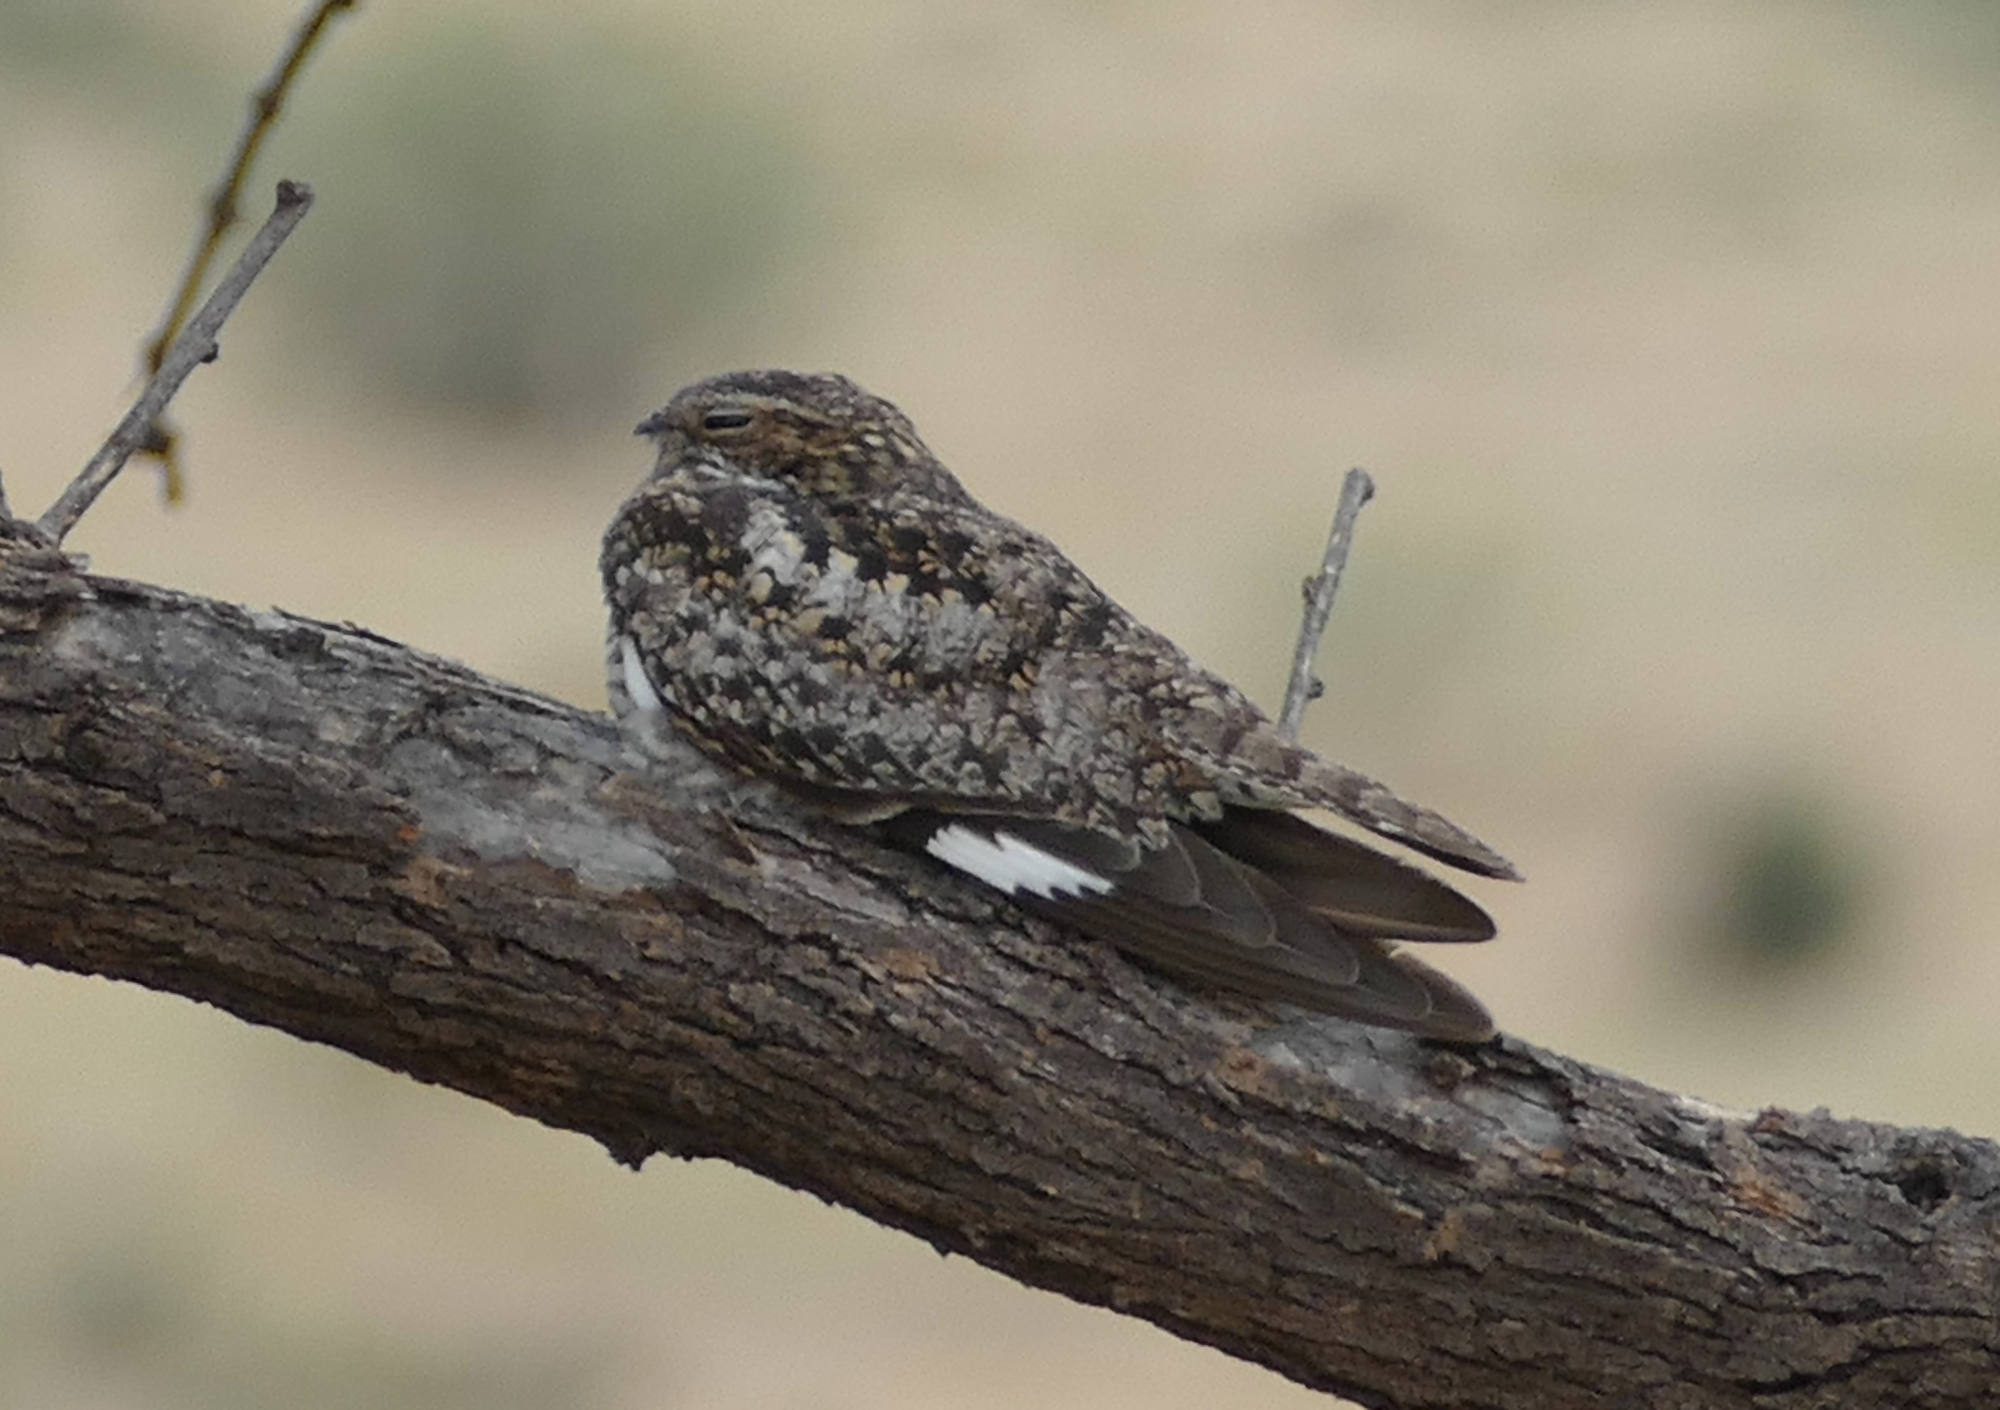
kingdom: Animalia
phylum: Chordata
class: Aves
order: Caprimulgiformes
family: Caprimulgidae
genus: Chordeiles
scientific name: Chordeiles minor
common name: Common nighthawk
